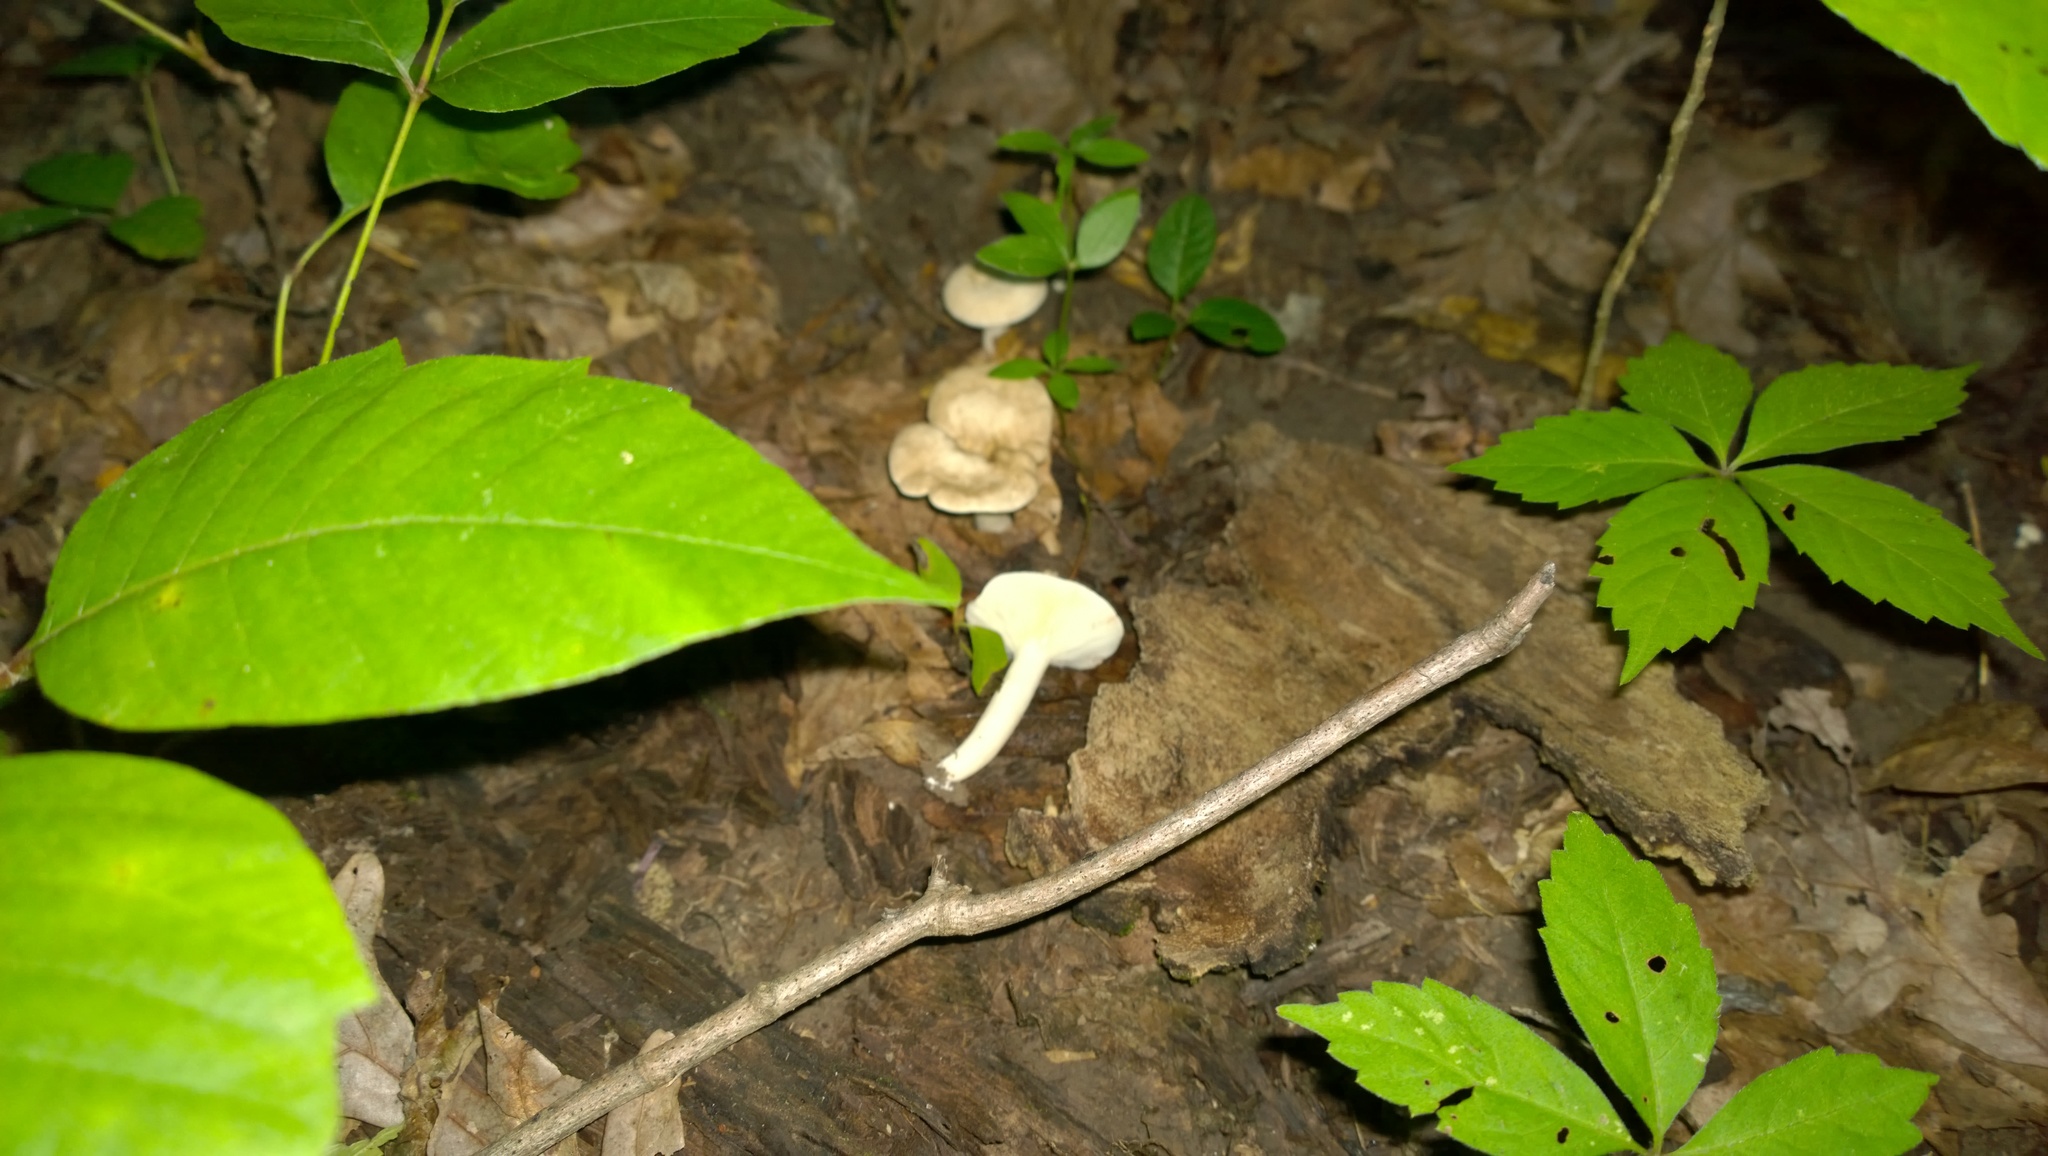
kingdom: Fungi
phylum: Basidiomycota
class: Agaricomycetes
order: Russulales
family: Russulaceae
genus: Lactarius
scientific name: Lactarius subvernalis
